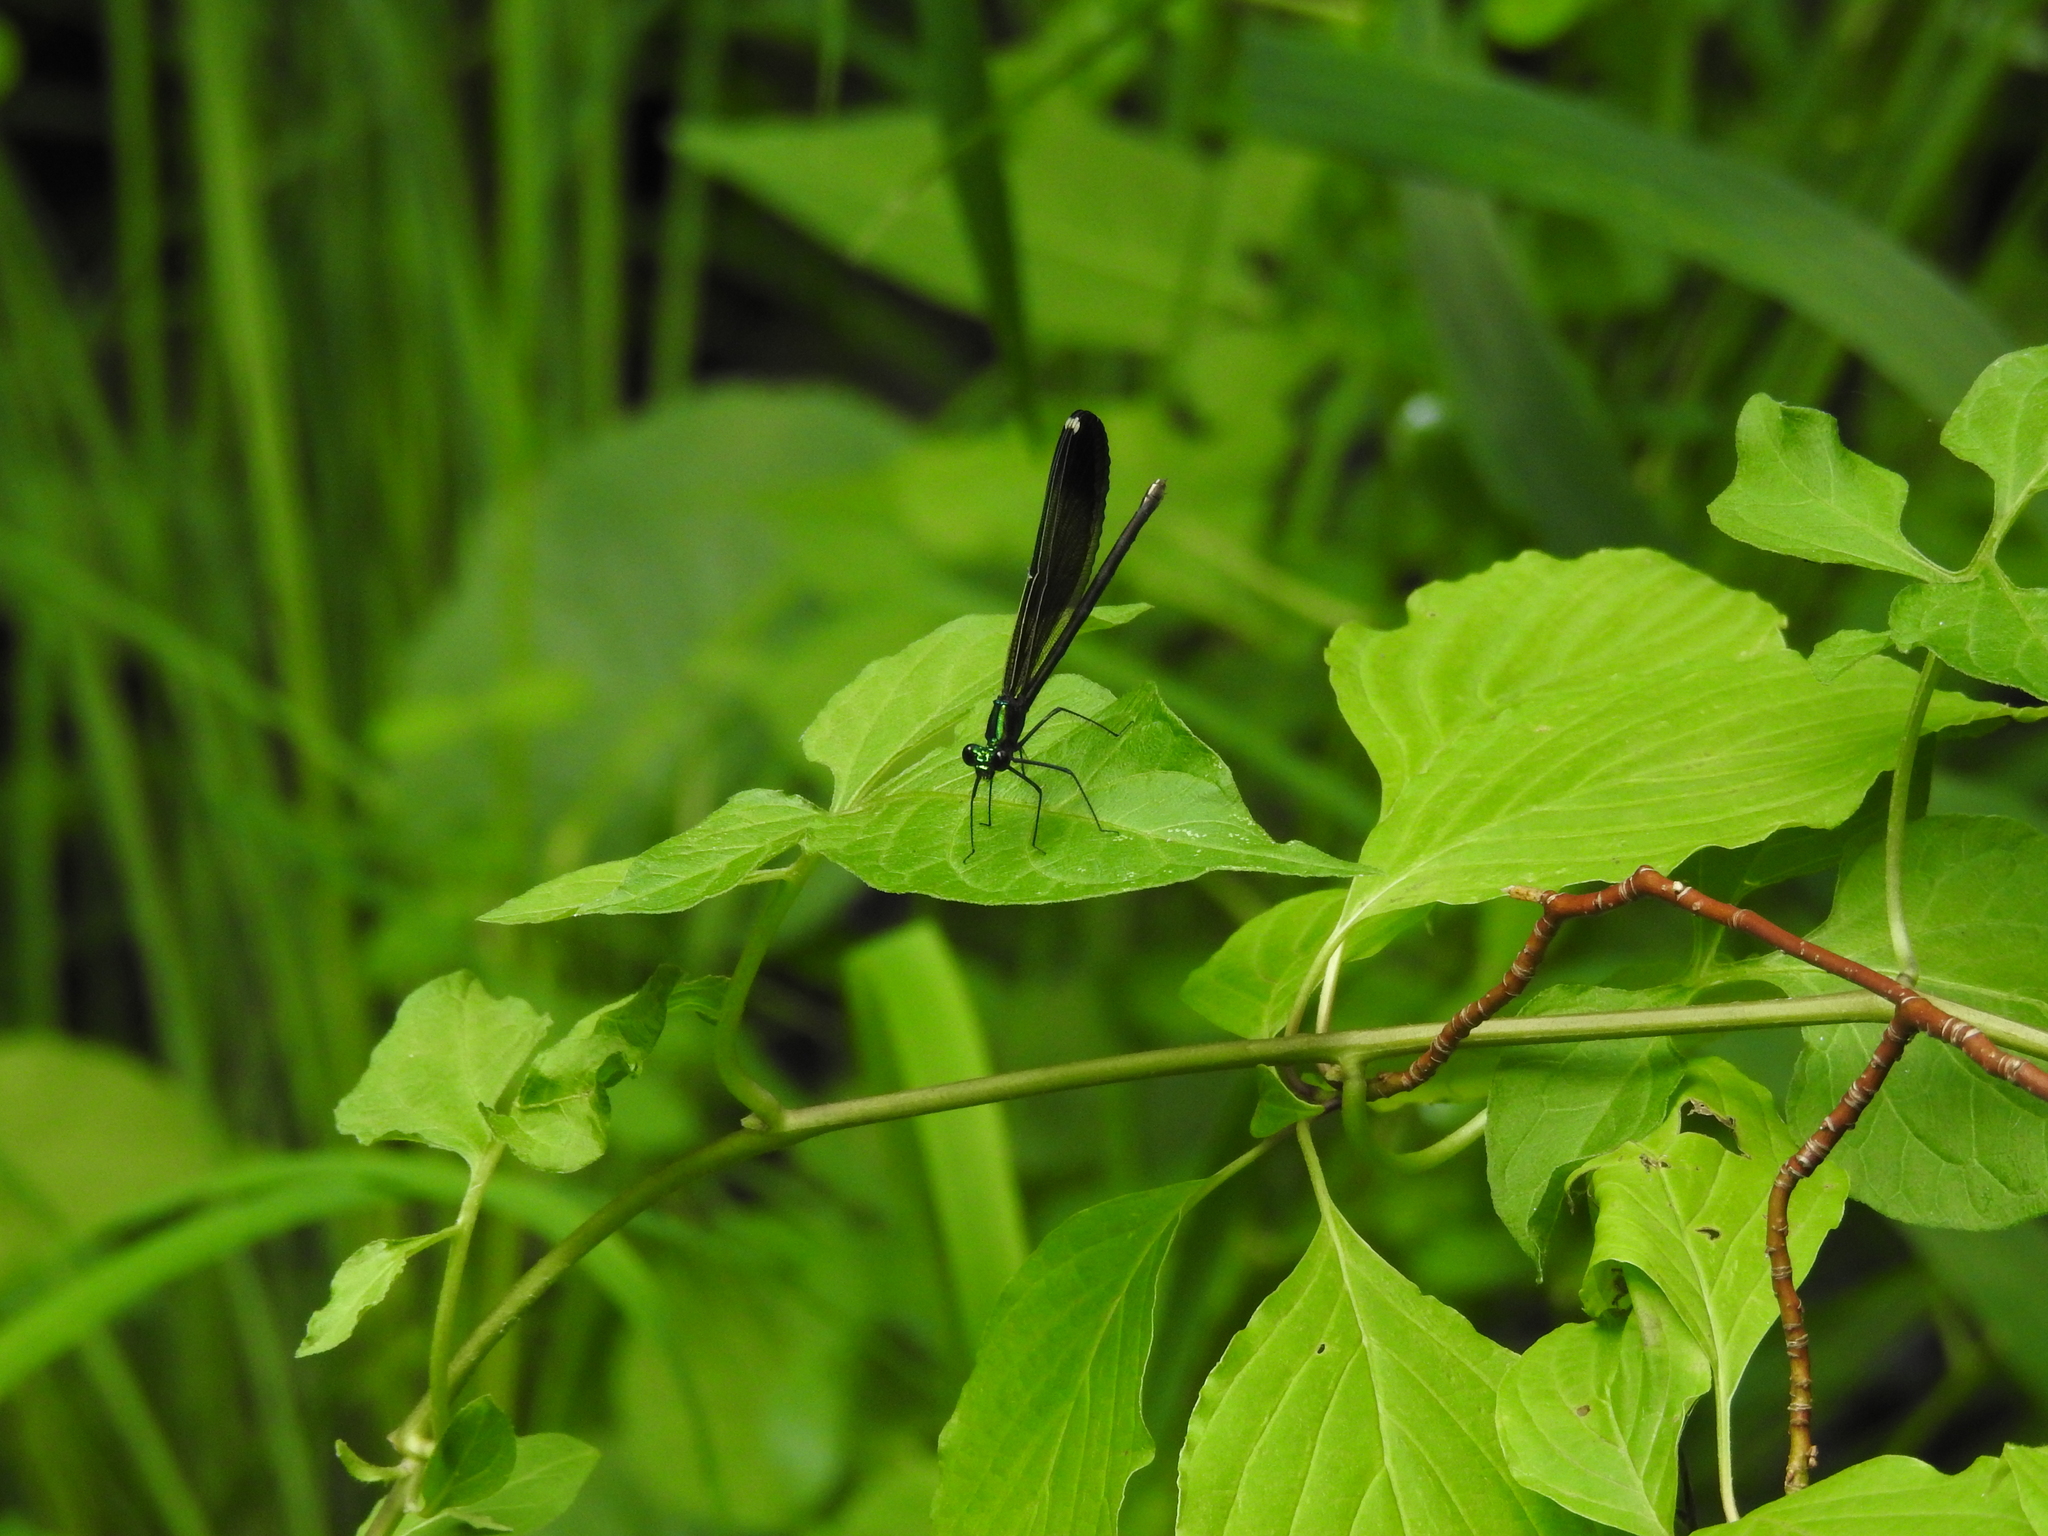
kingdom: Animalia
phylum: Arthropoda
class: Insecta
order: Odonata
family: Calopterygidae
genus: Calopteryx
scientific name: Calopteryx maculata
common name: Ebony jewelwing
